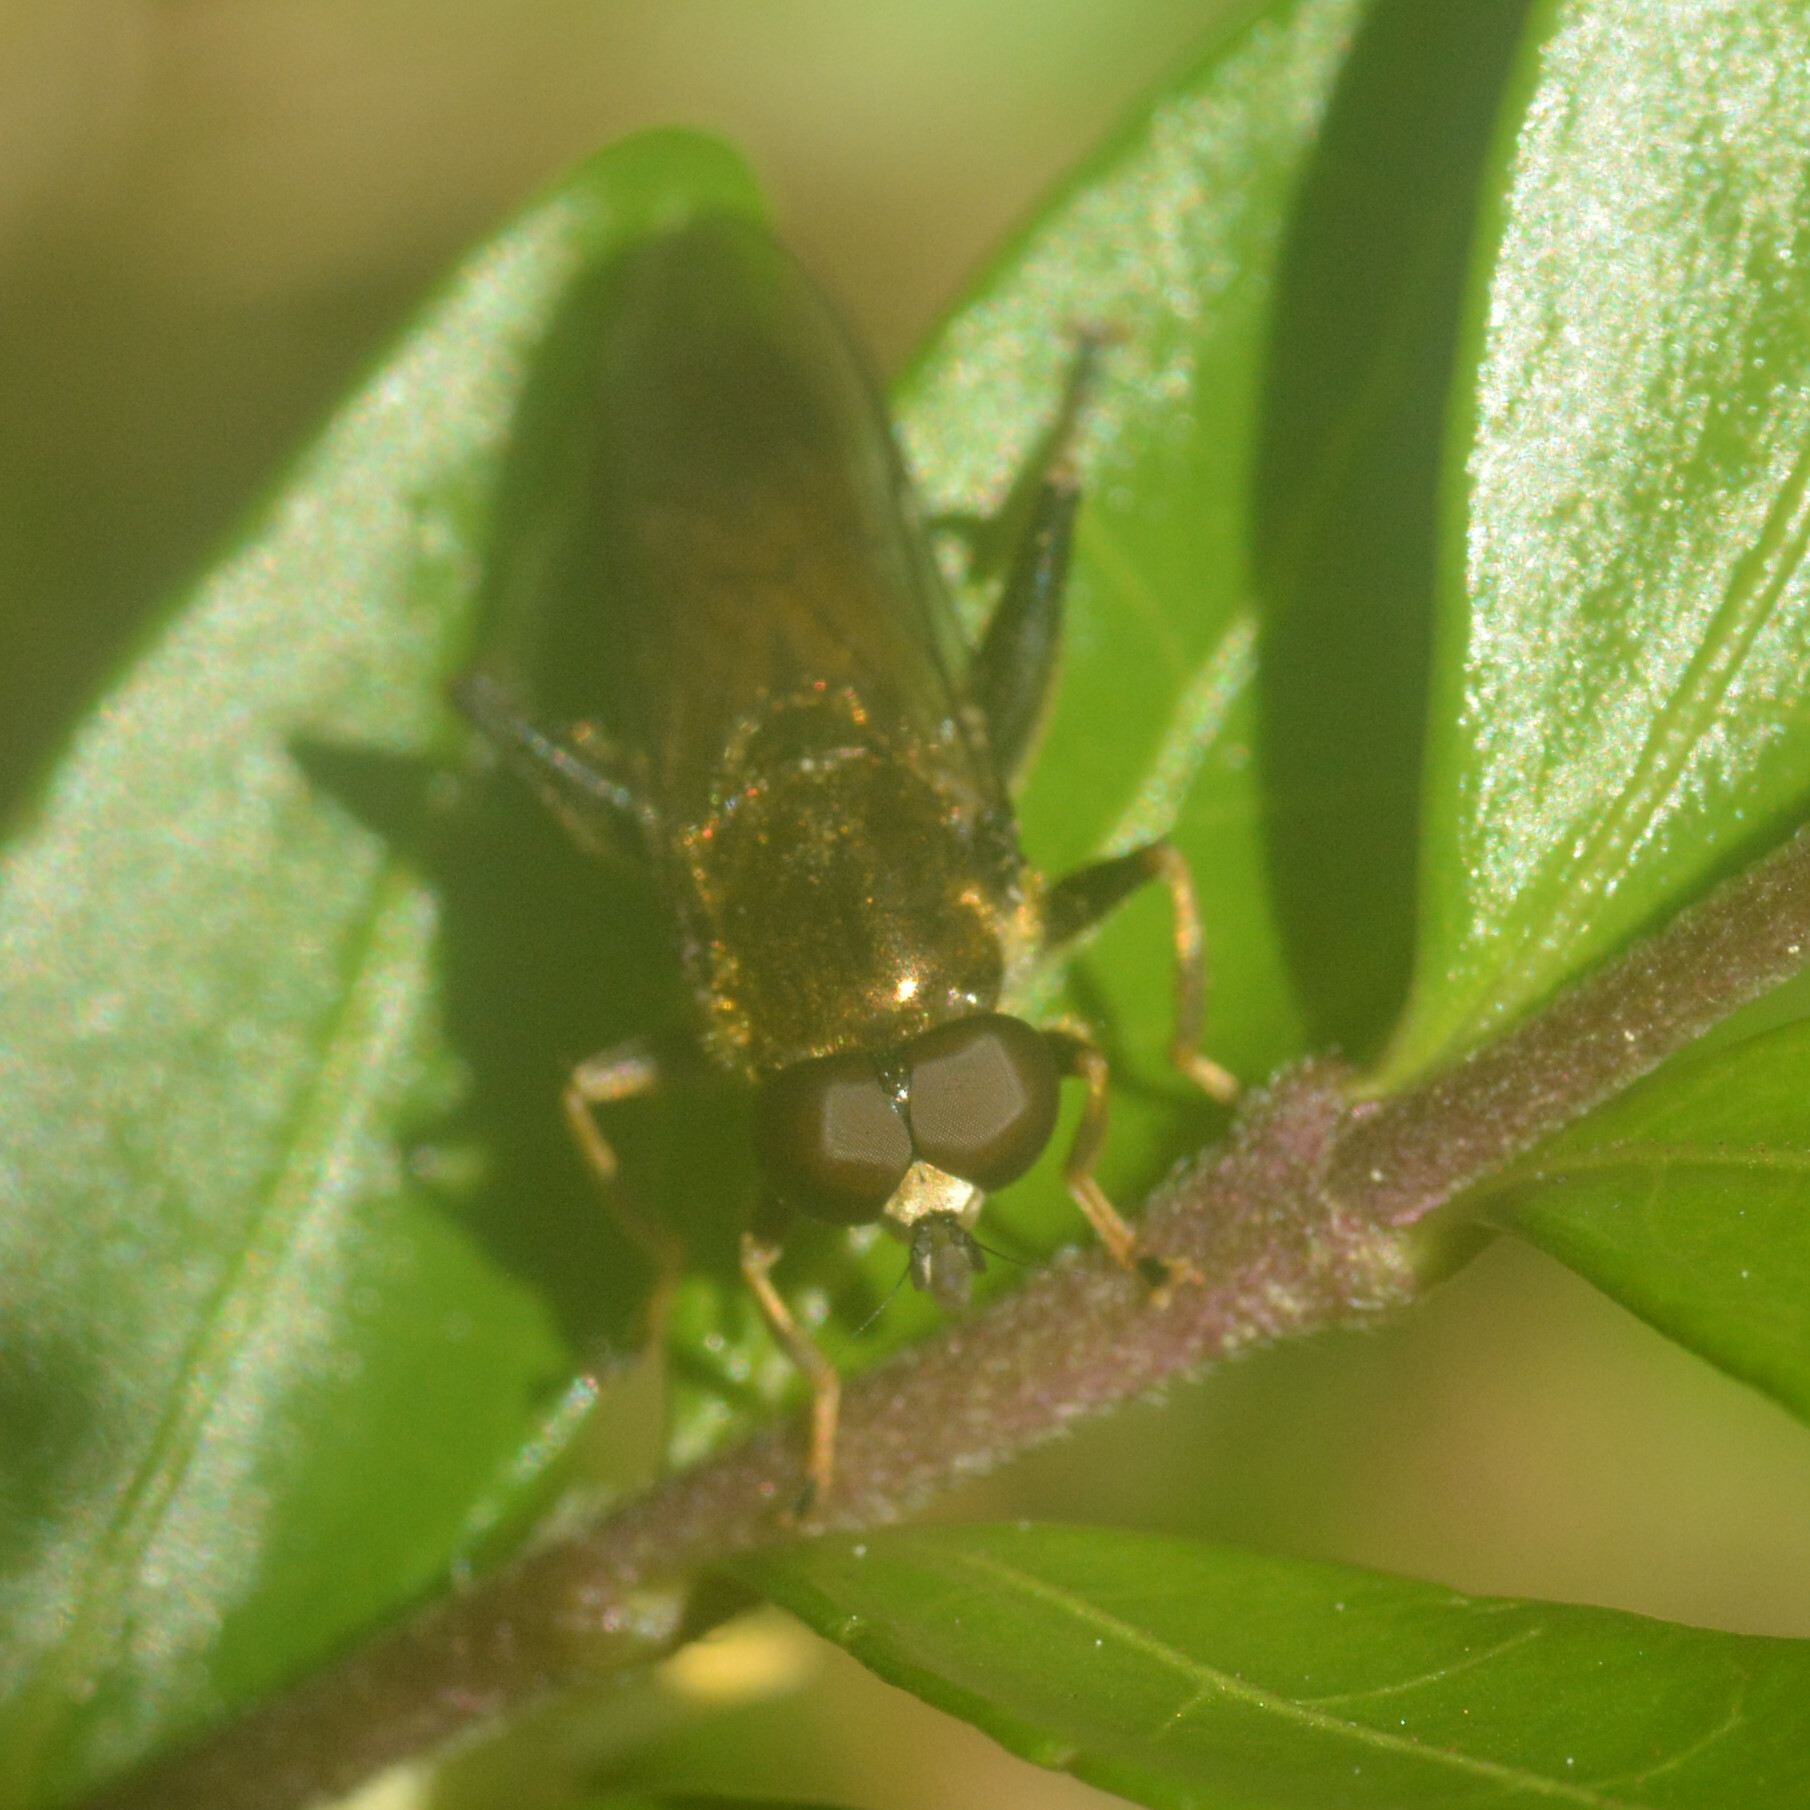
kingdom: Animalia
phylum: Arthropoda
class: Insecta
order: Diptera
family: Syrphidae
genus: Xylota
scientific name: Xylota segnis
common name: Brown-toed forest fly
